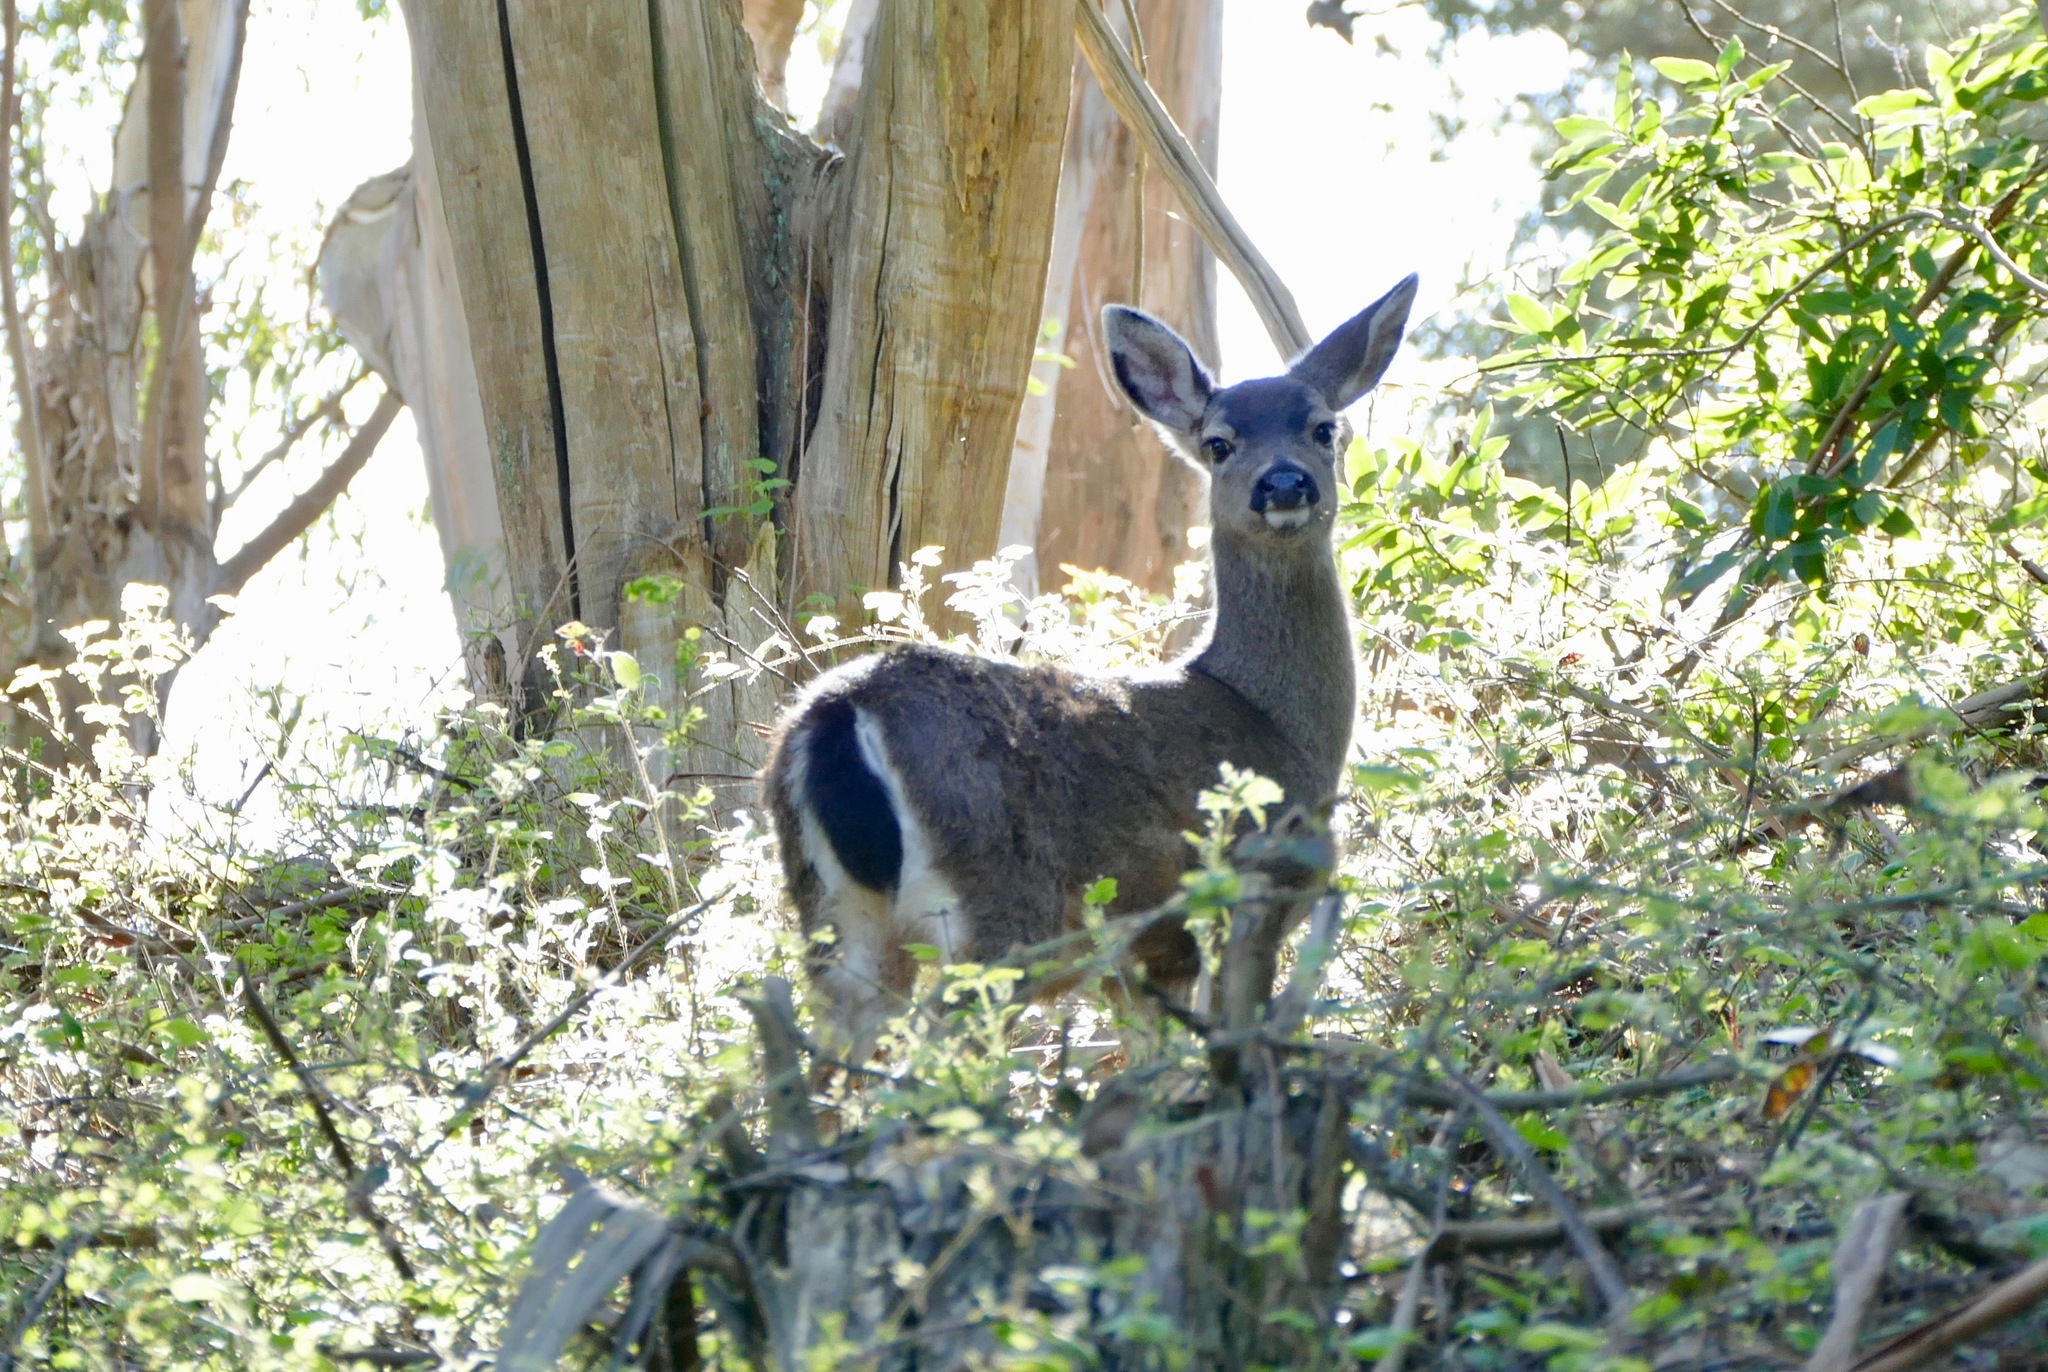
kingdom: Animalia
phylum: Chordata
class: Mammalia
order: Artiodactyla
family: Cervidae
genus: Odocoileus
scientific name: Odocoileus hemionus
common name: Mule deer
